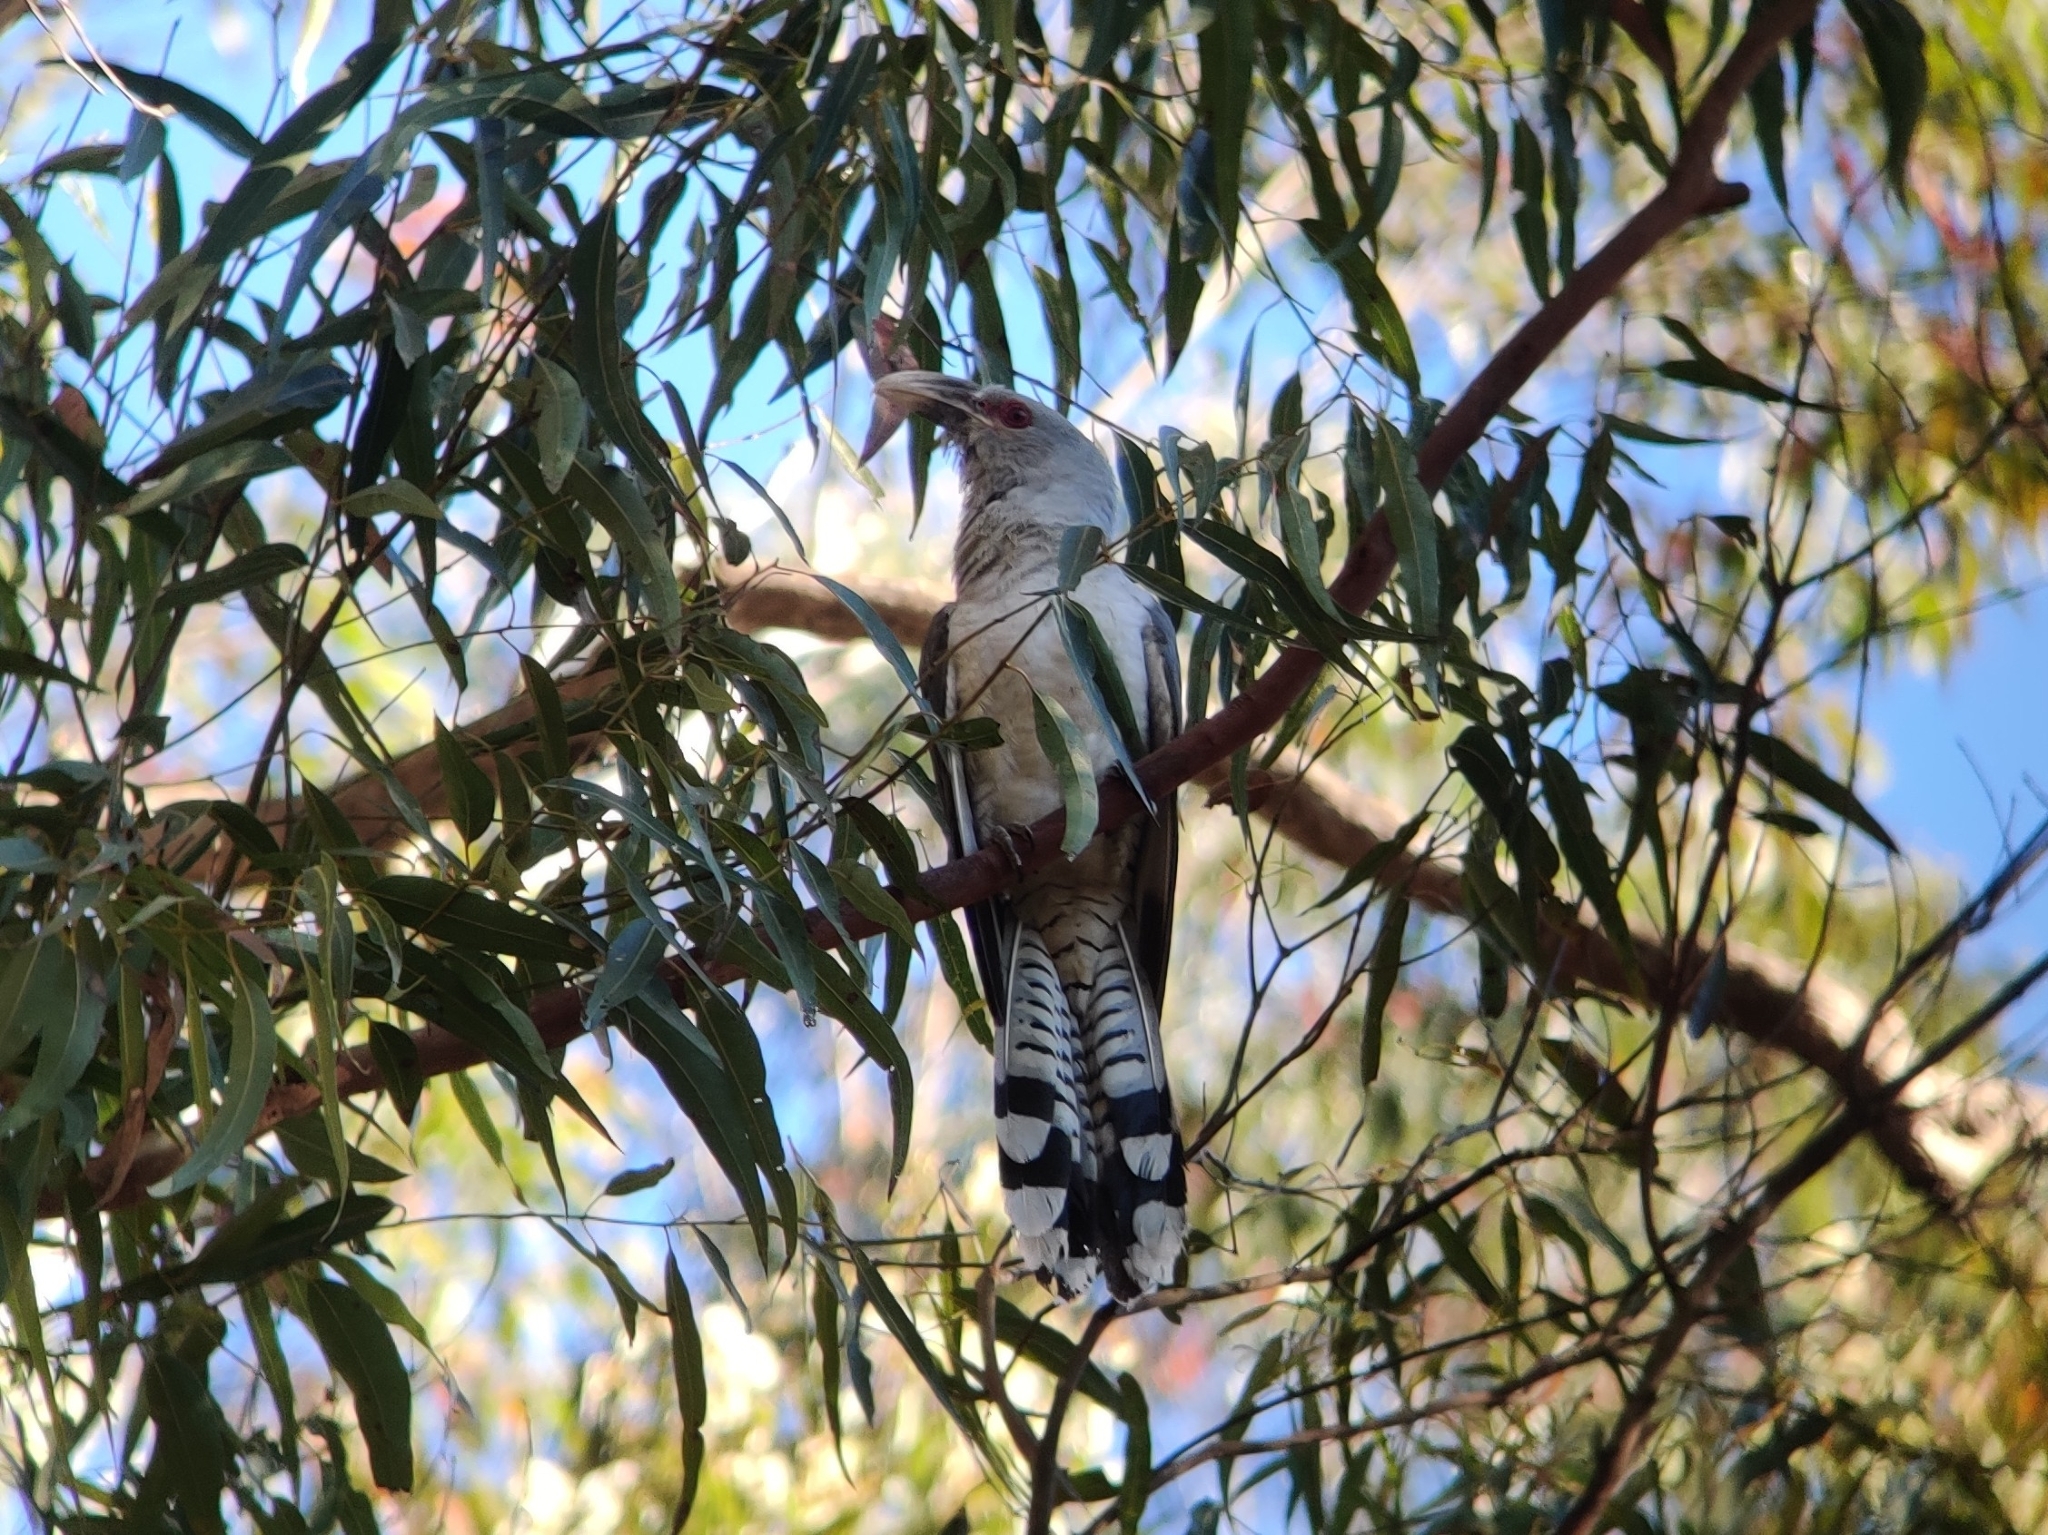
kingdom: Animalia
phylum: Chordata
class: Aves
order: Cuculiformes
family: Cuculidae
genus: Scythrops
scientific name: Scythrops novaehollandiae
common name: Channel-billed cuckoo
